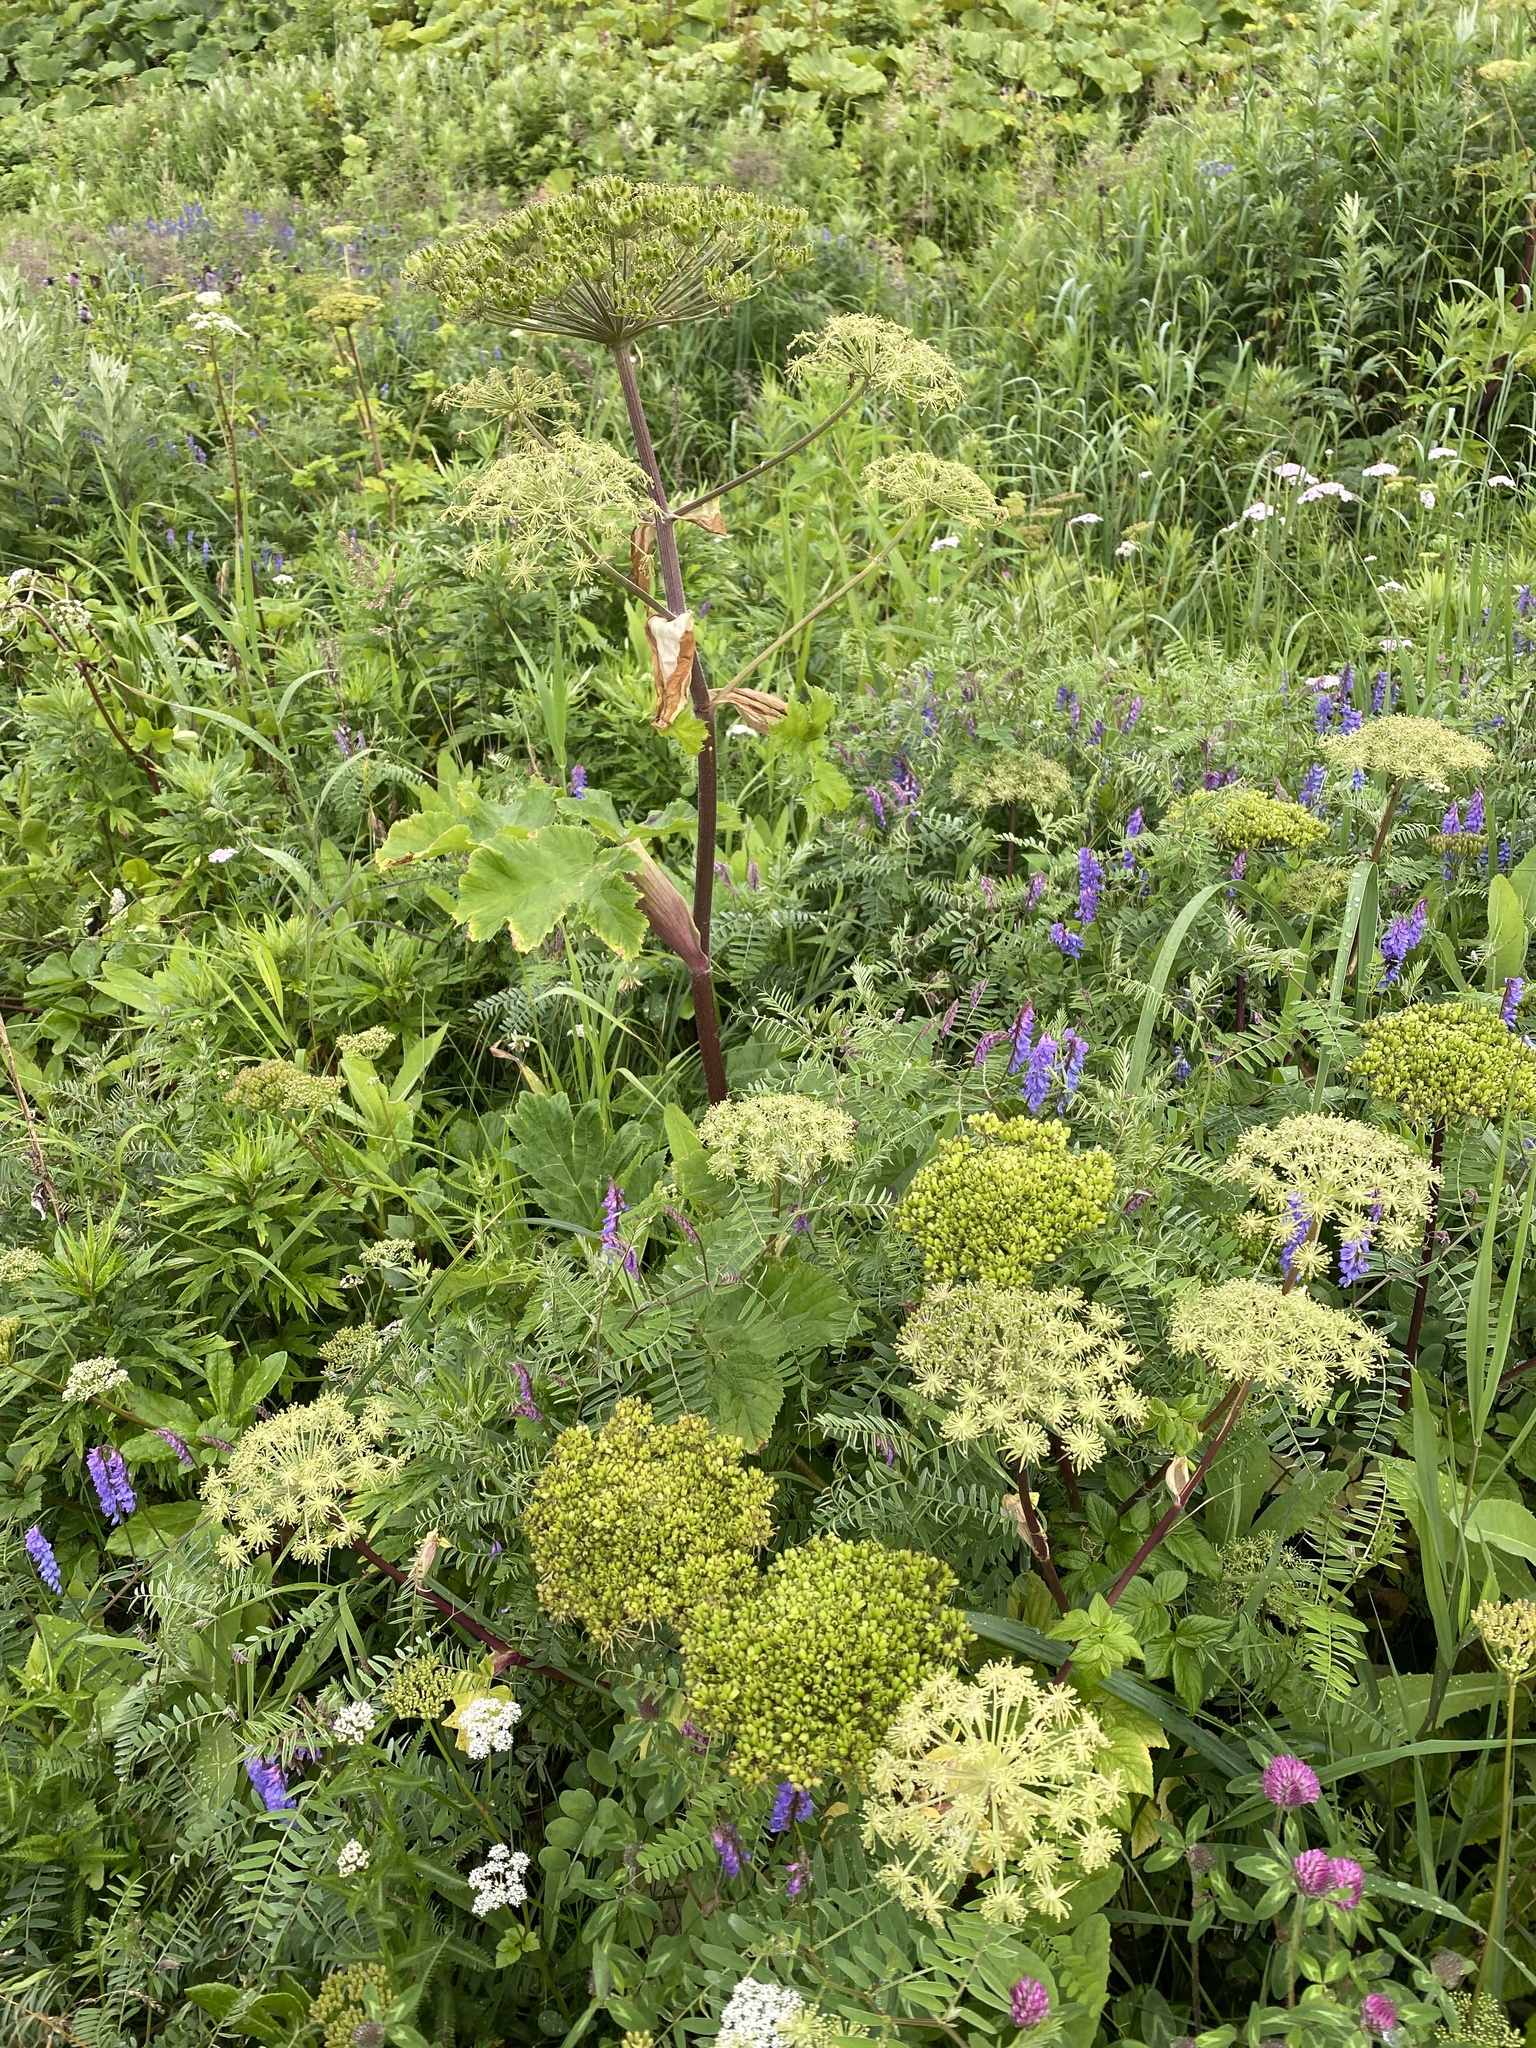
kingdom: Plantae
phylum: Tracheophyta
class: Magnoliopsida
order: Apiales
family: Apiaceae
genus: Heracleum
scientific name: Heracleum maximum
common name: American cow parsnip
